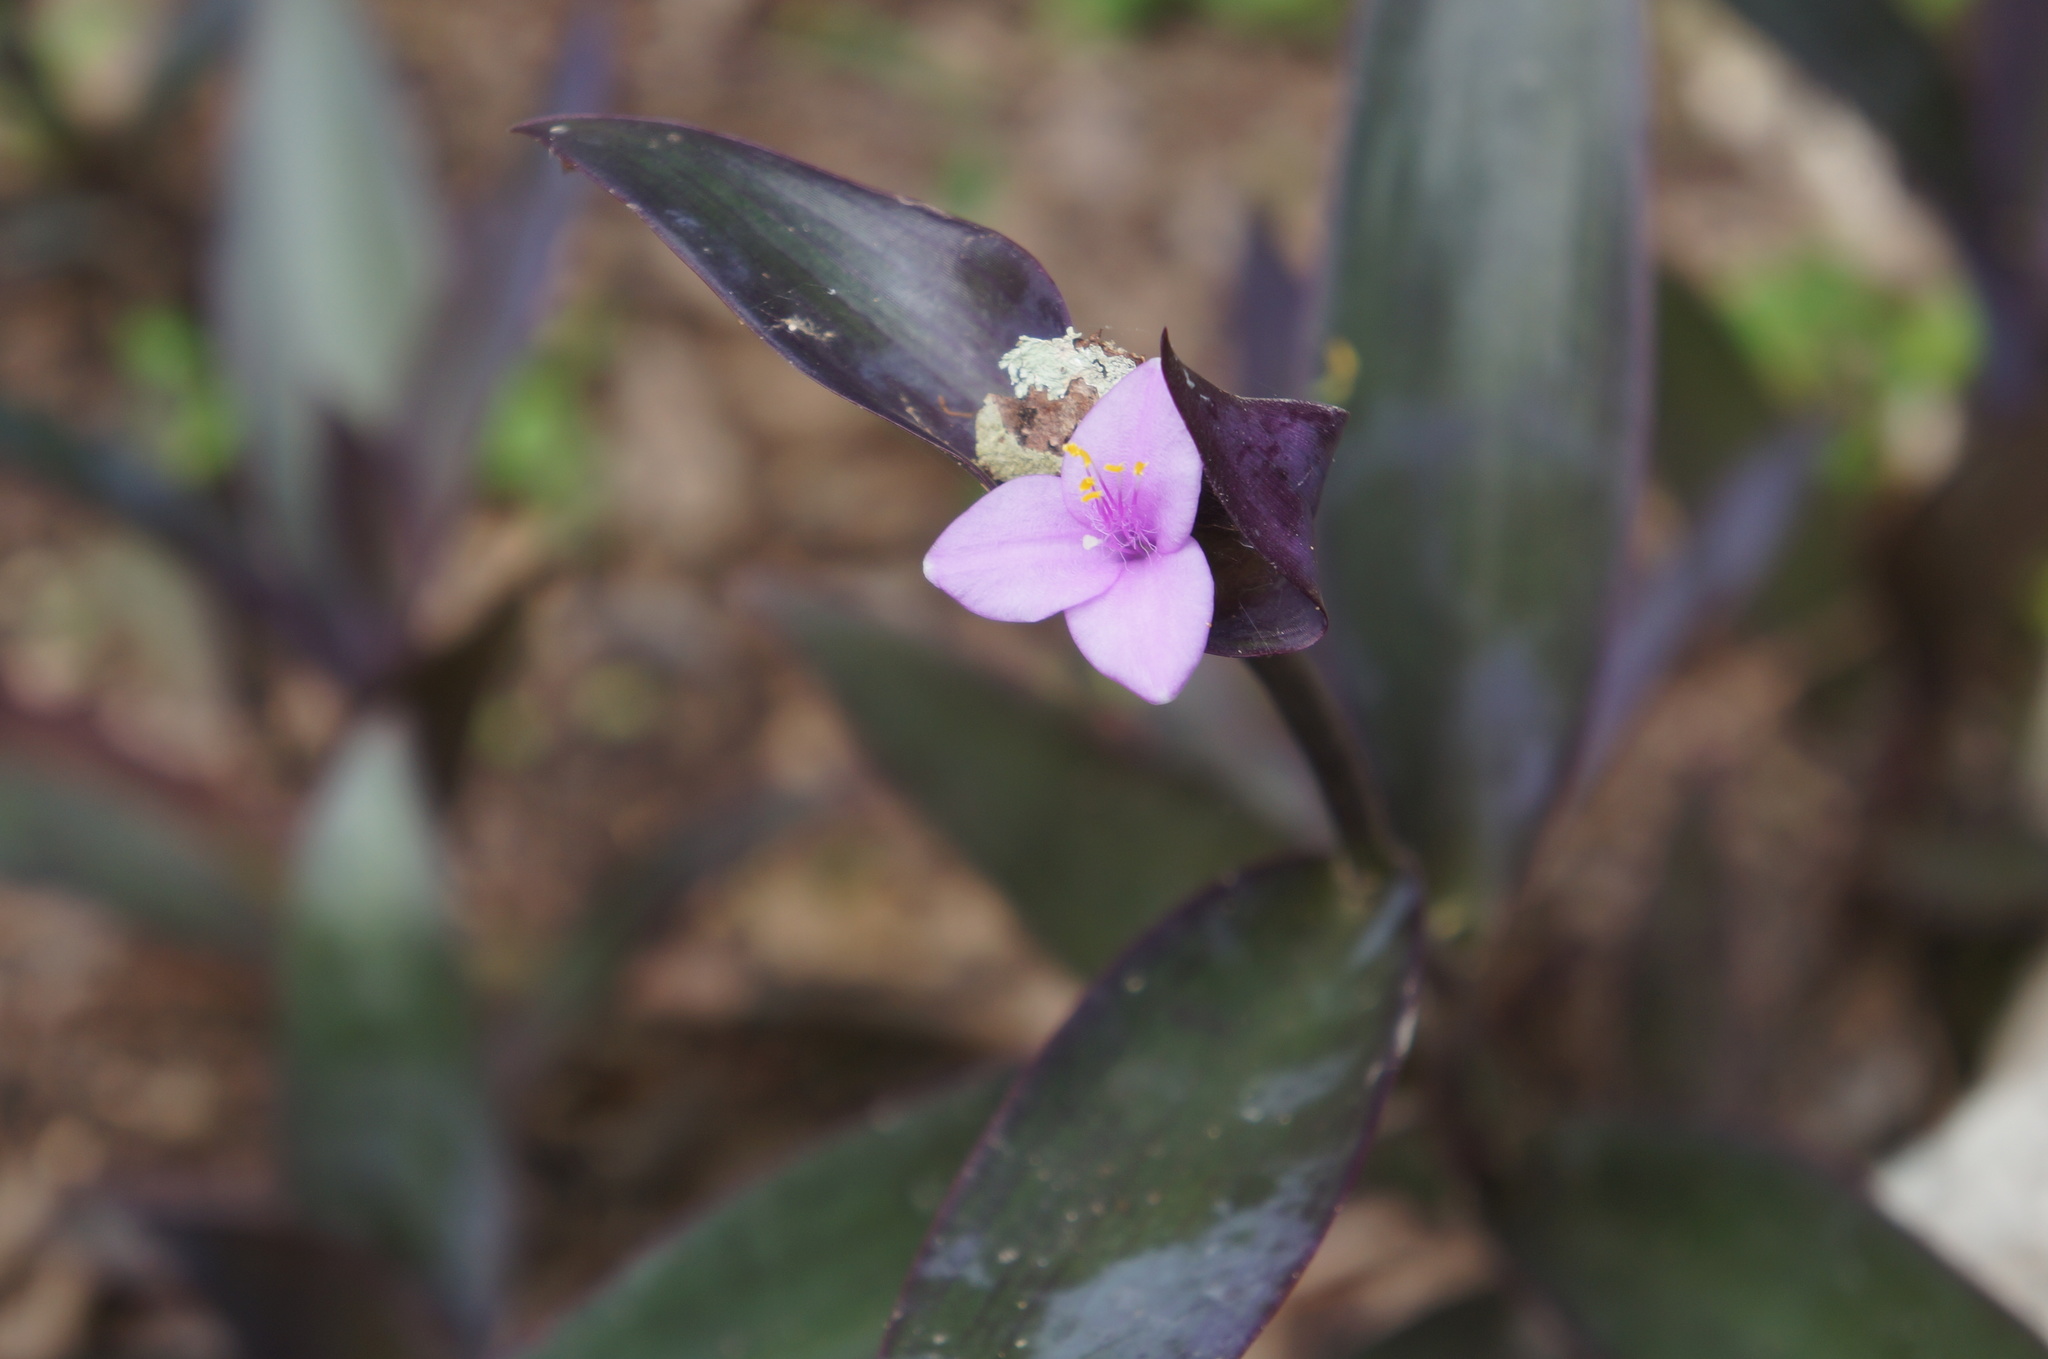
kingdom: Plantae
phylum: Tracheophyta
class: Liliopsida
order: Commelinales
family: Commelinaceae
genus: Tradescantia
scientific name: Tradescantia pallida
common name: Purpleheart
